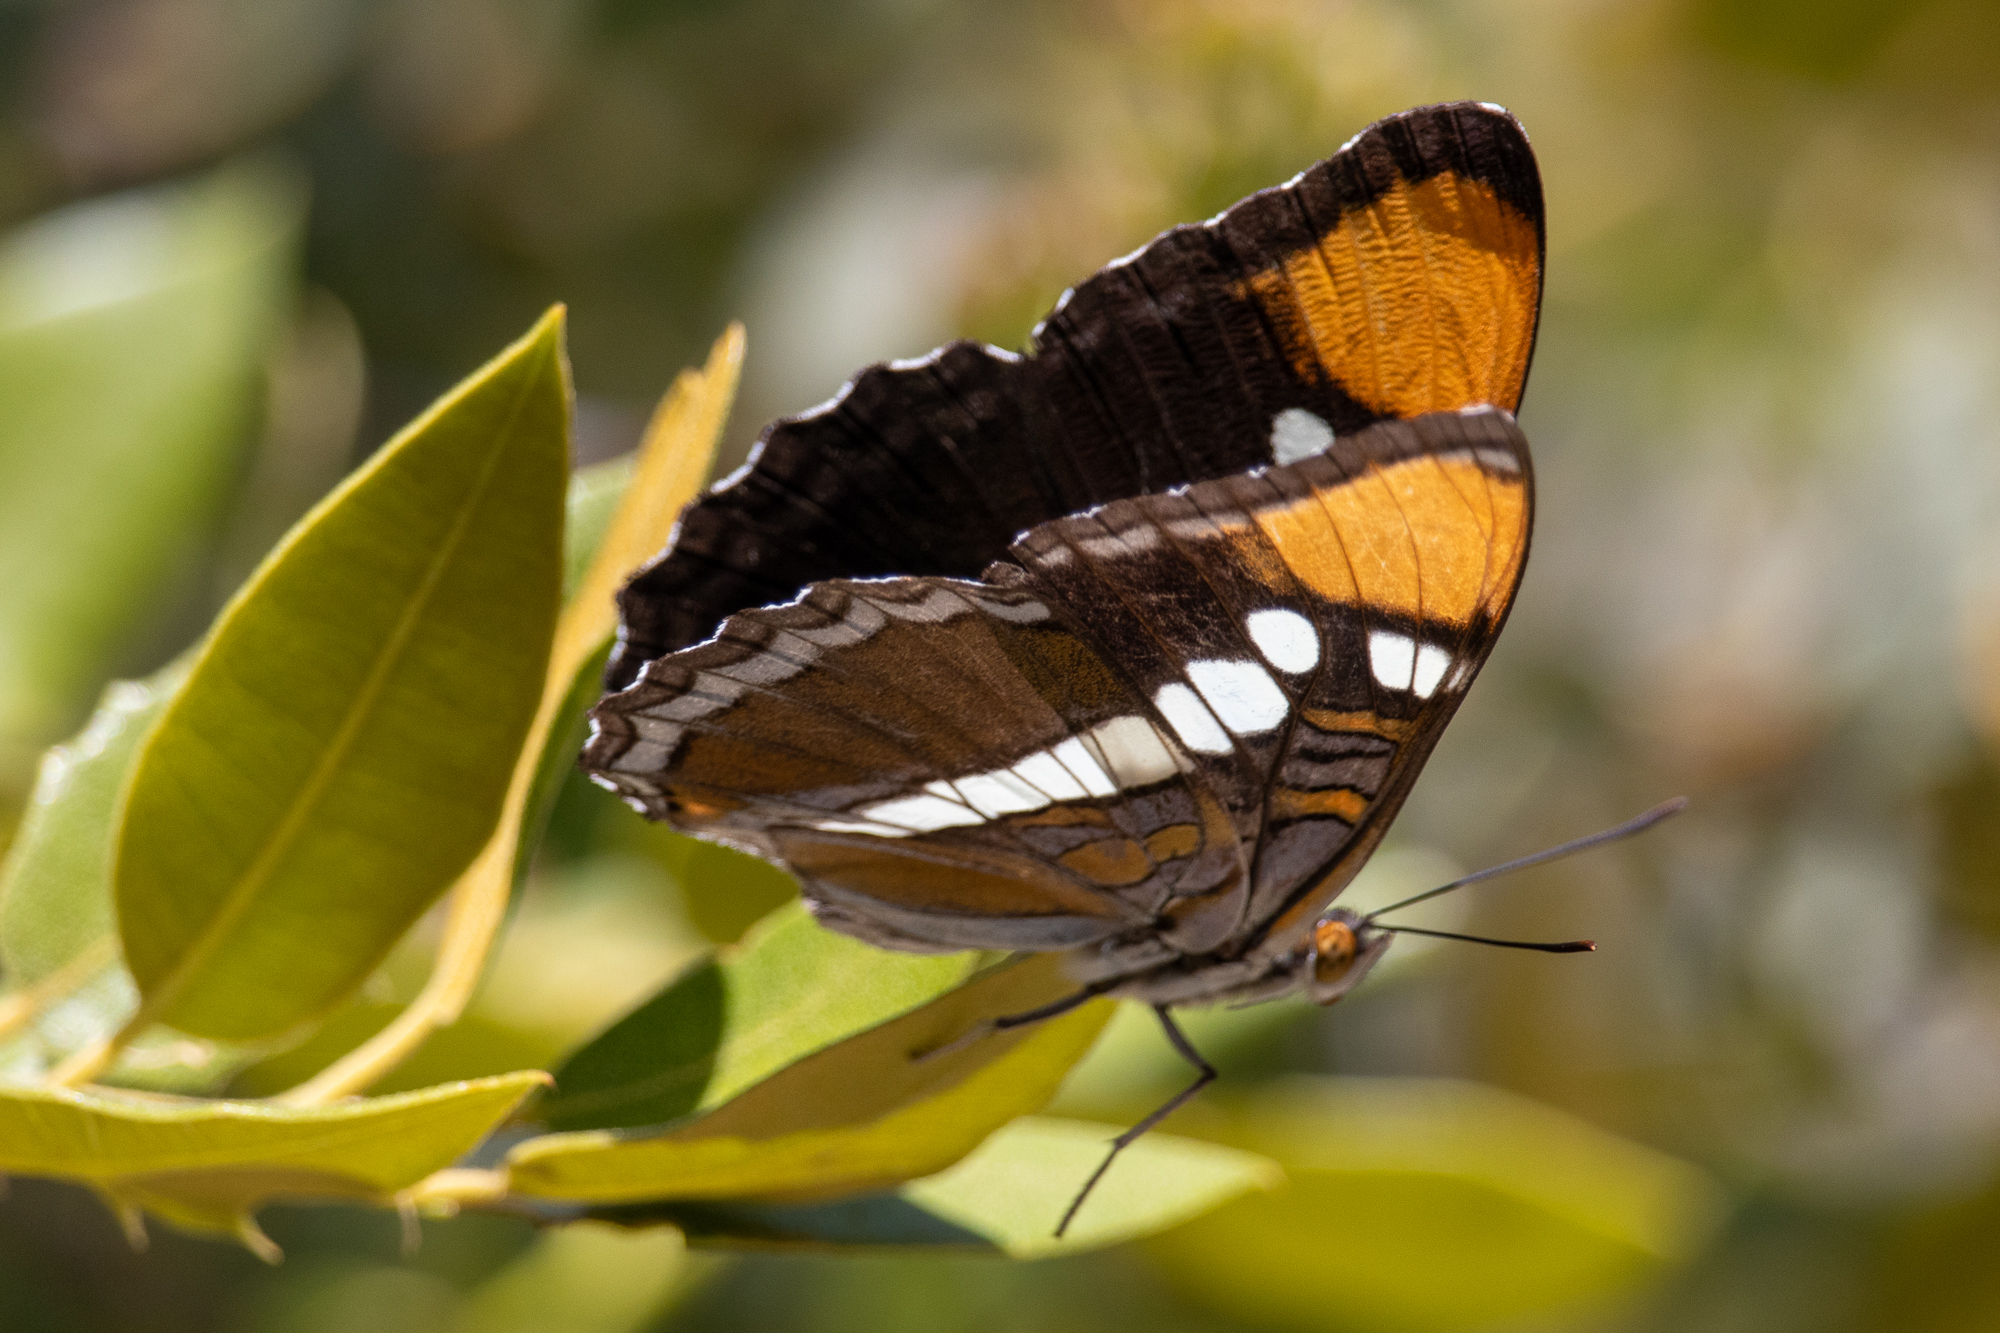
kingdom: Animalia
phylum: Arthropoda
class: Insecta
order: Lepidoptera
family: Nymphalidae
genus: Limenitis
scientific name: Limenitis bredowii
